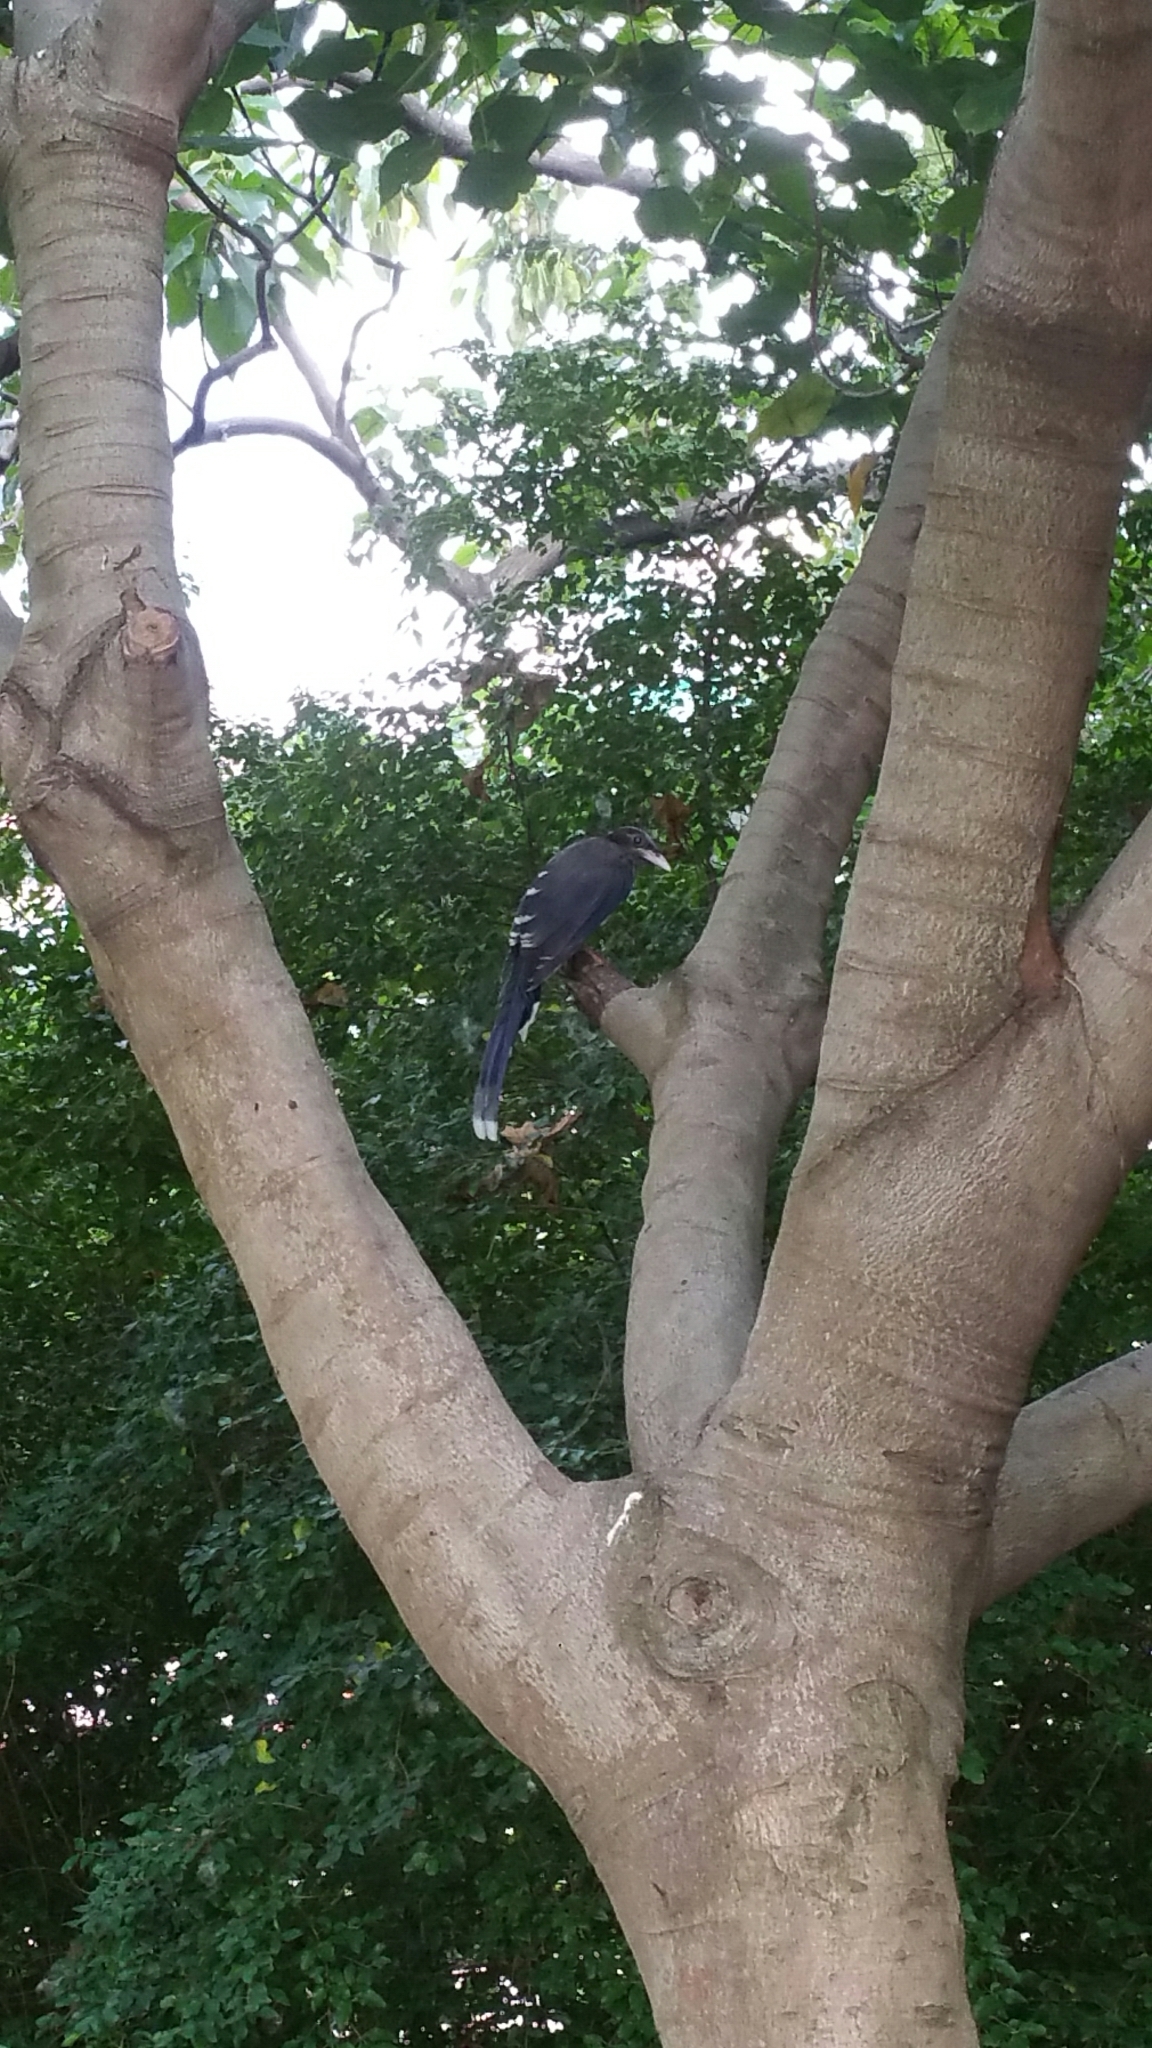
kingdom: Animalia
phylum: Chordata
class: Aves
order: Passeriformes
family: Corvidae
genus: Urocissa
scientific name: Urocissa erythroryncha
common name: Red-billed blue magpie
